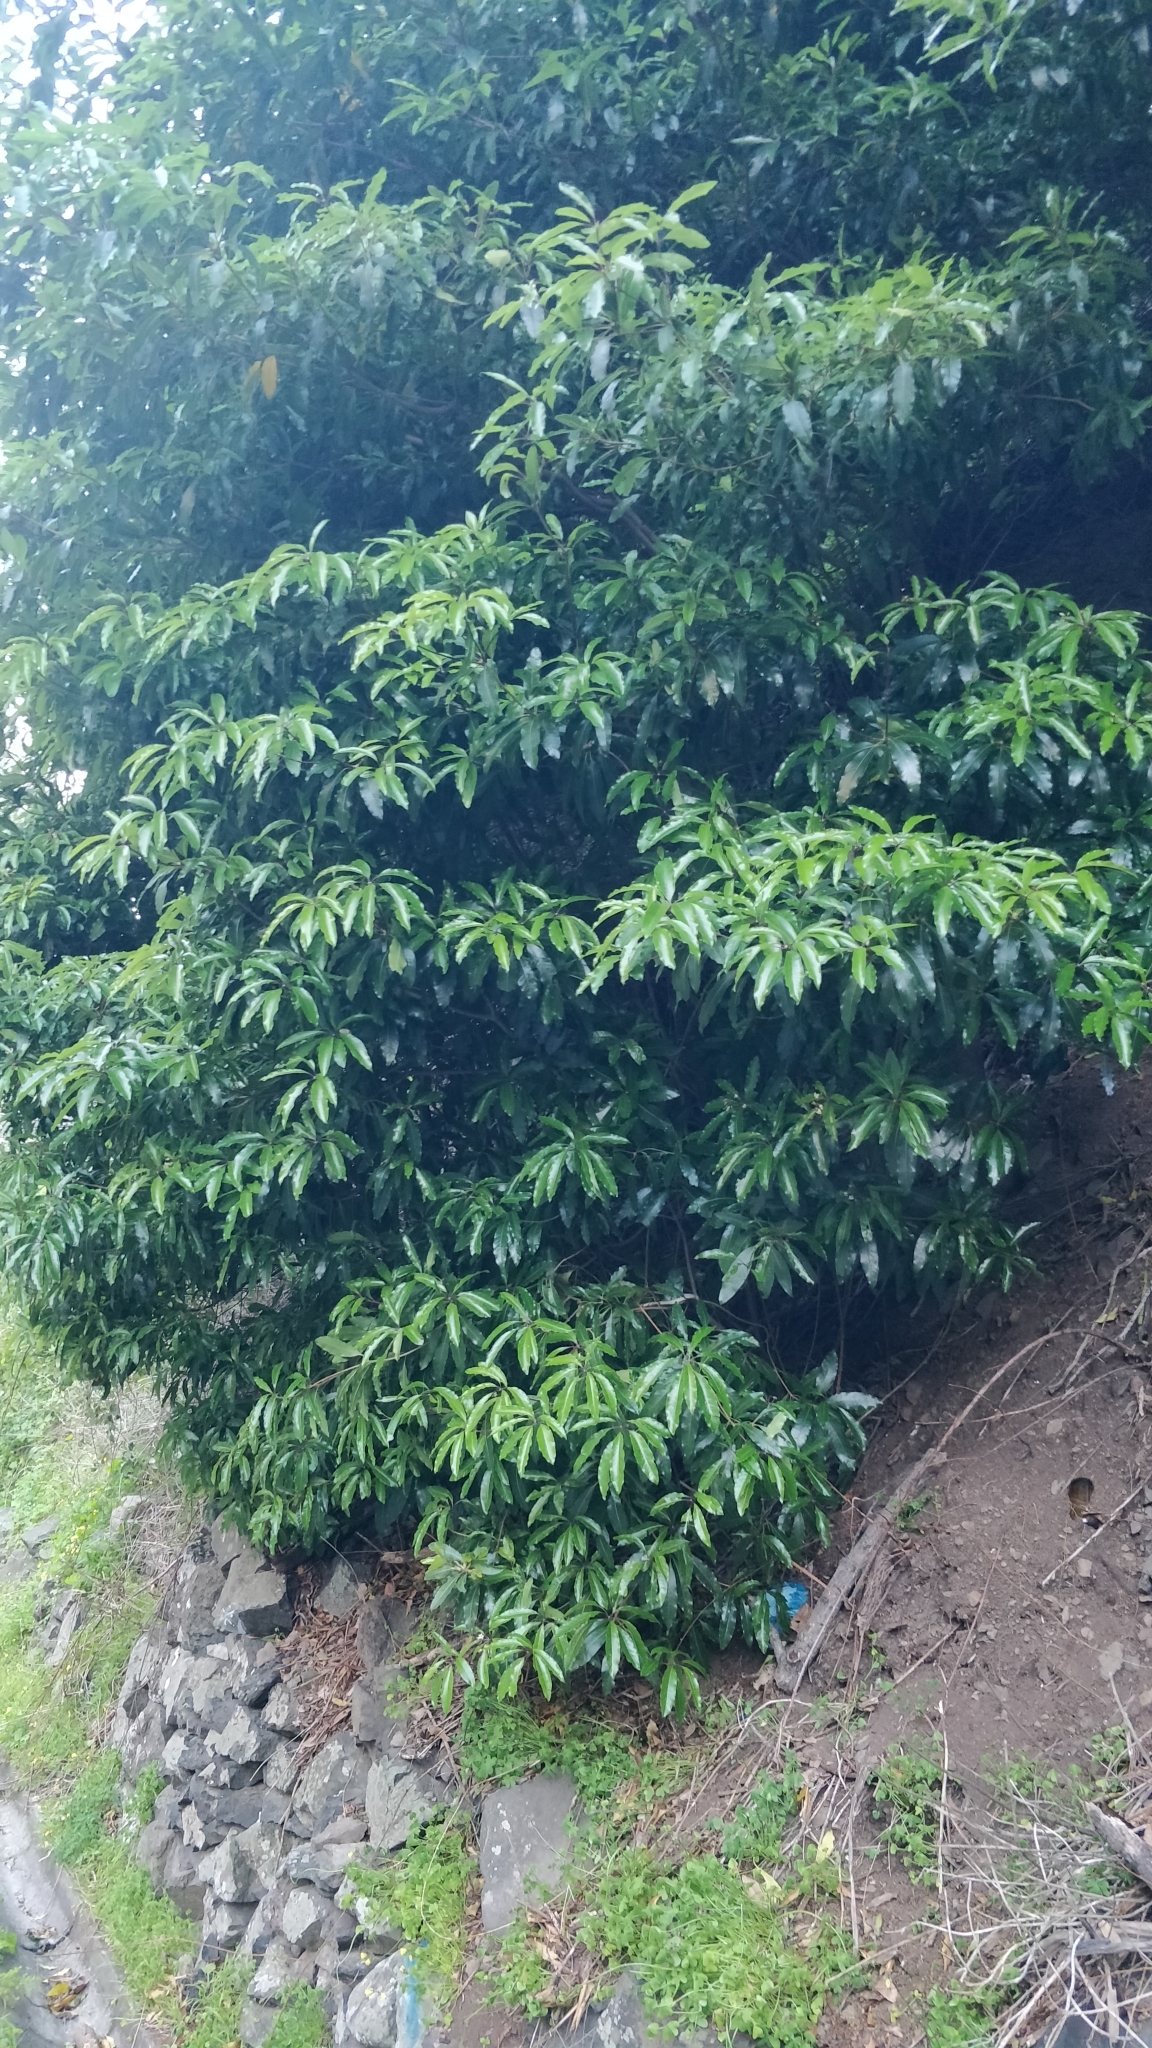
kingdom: Plantae
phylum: Tracheophyta
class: Magnoliopsida
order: Apiales
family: Pittosporaceae
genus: Pittosporum
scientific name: Pittosporum undulatum
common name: Australian cheesewood
